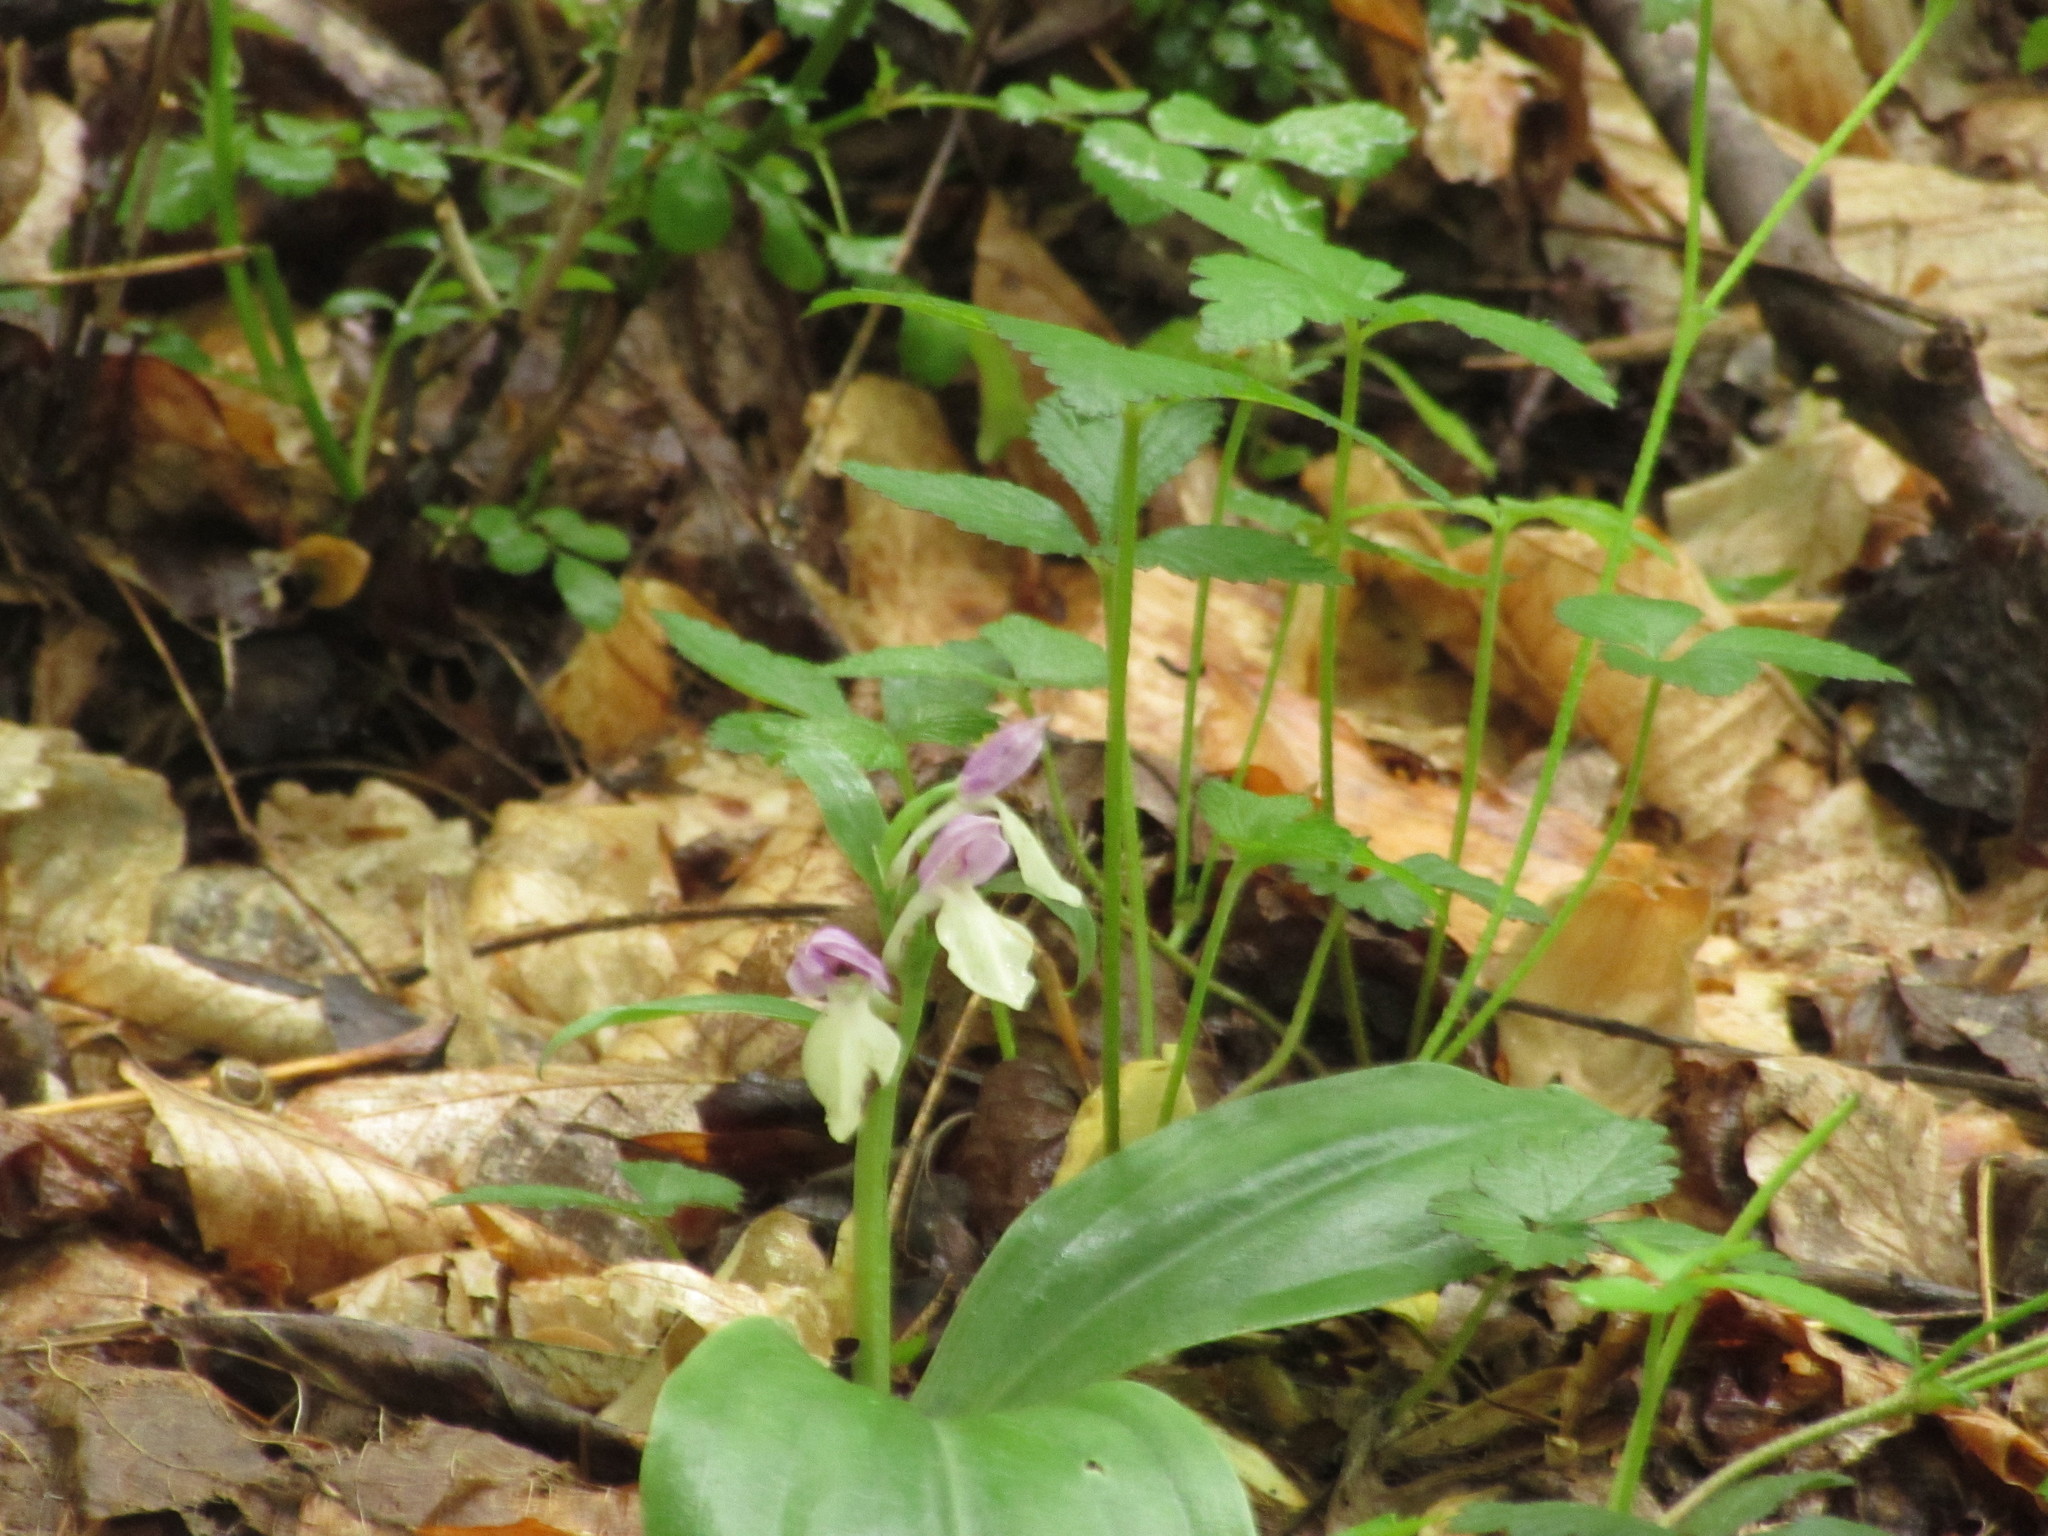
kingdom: Plantae
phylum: Tracheophyta
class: Liliopsida
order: Asparagales
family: Orchidaceae
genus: Galearis
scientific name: Galearis spectabilis
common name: Purple-hooded orchis
